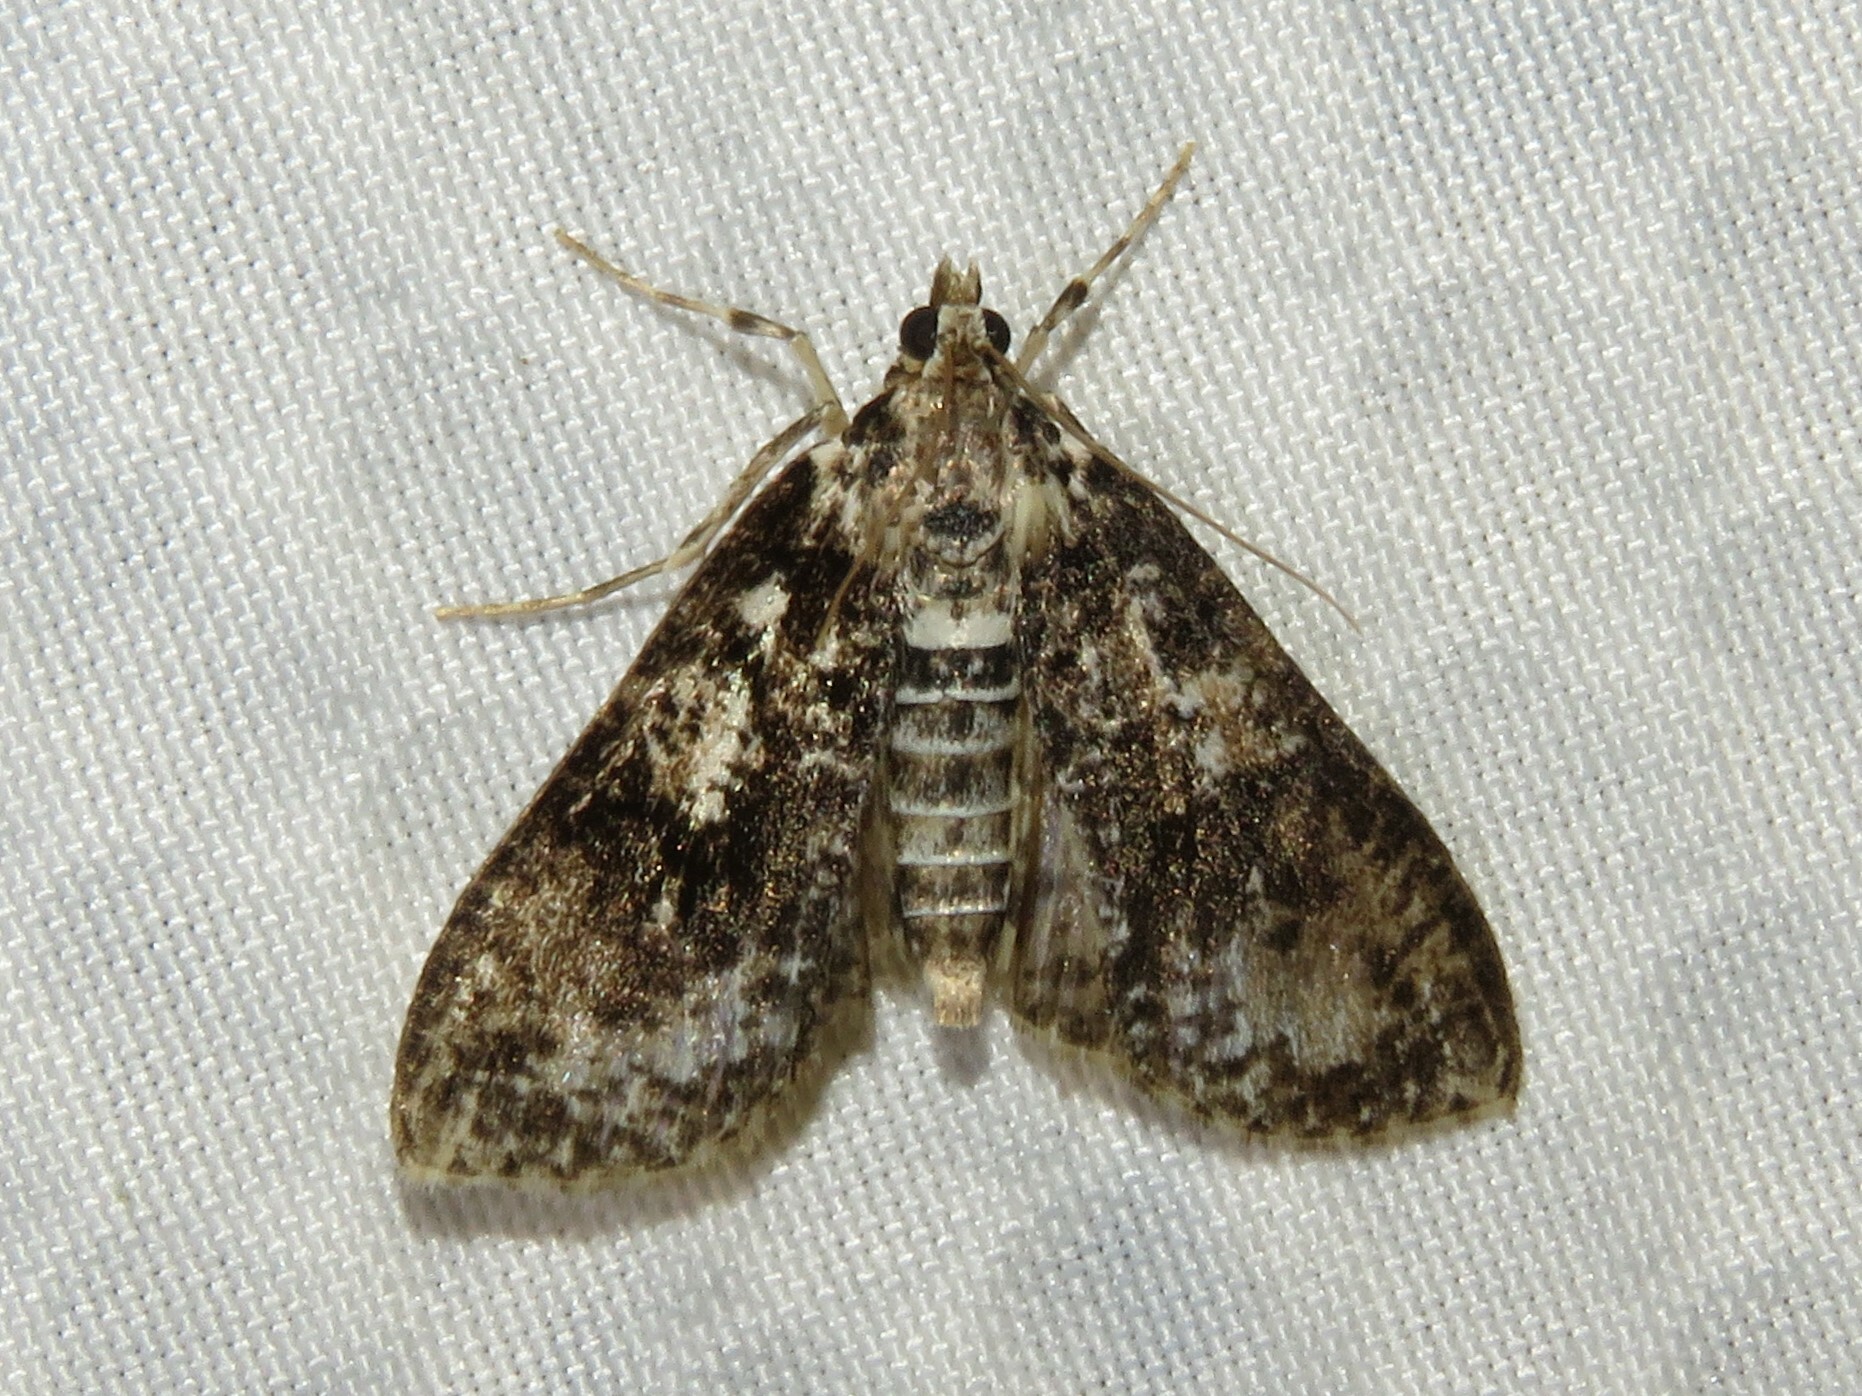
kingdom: Animalia
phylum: Arthropoda
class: Insecta
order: Lepidoptera
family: Crambidae
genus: Palpita
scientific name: Palpita magniferalis
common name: Splendid palpita moth
